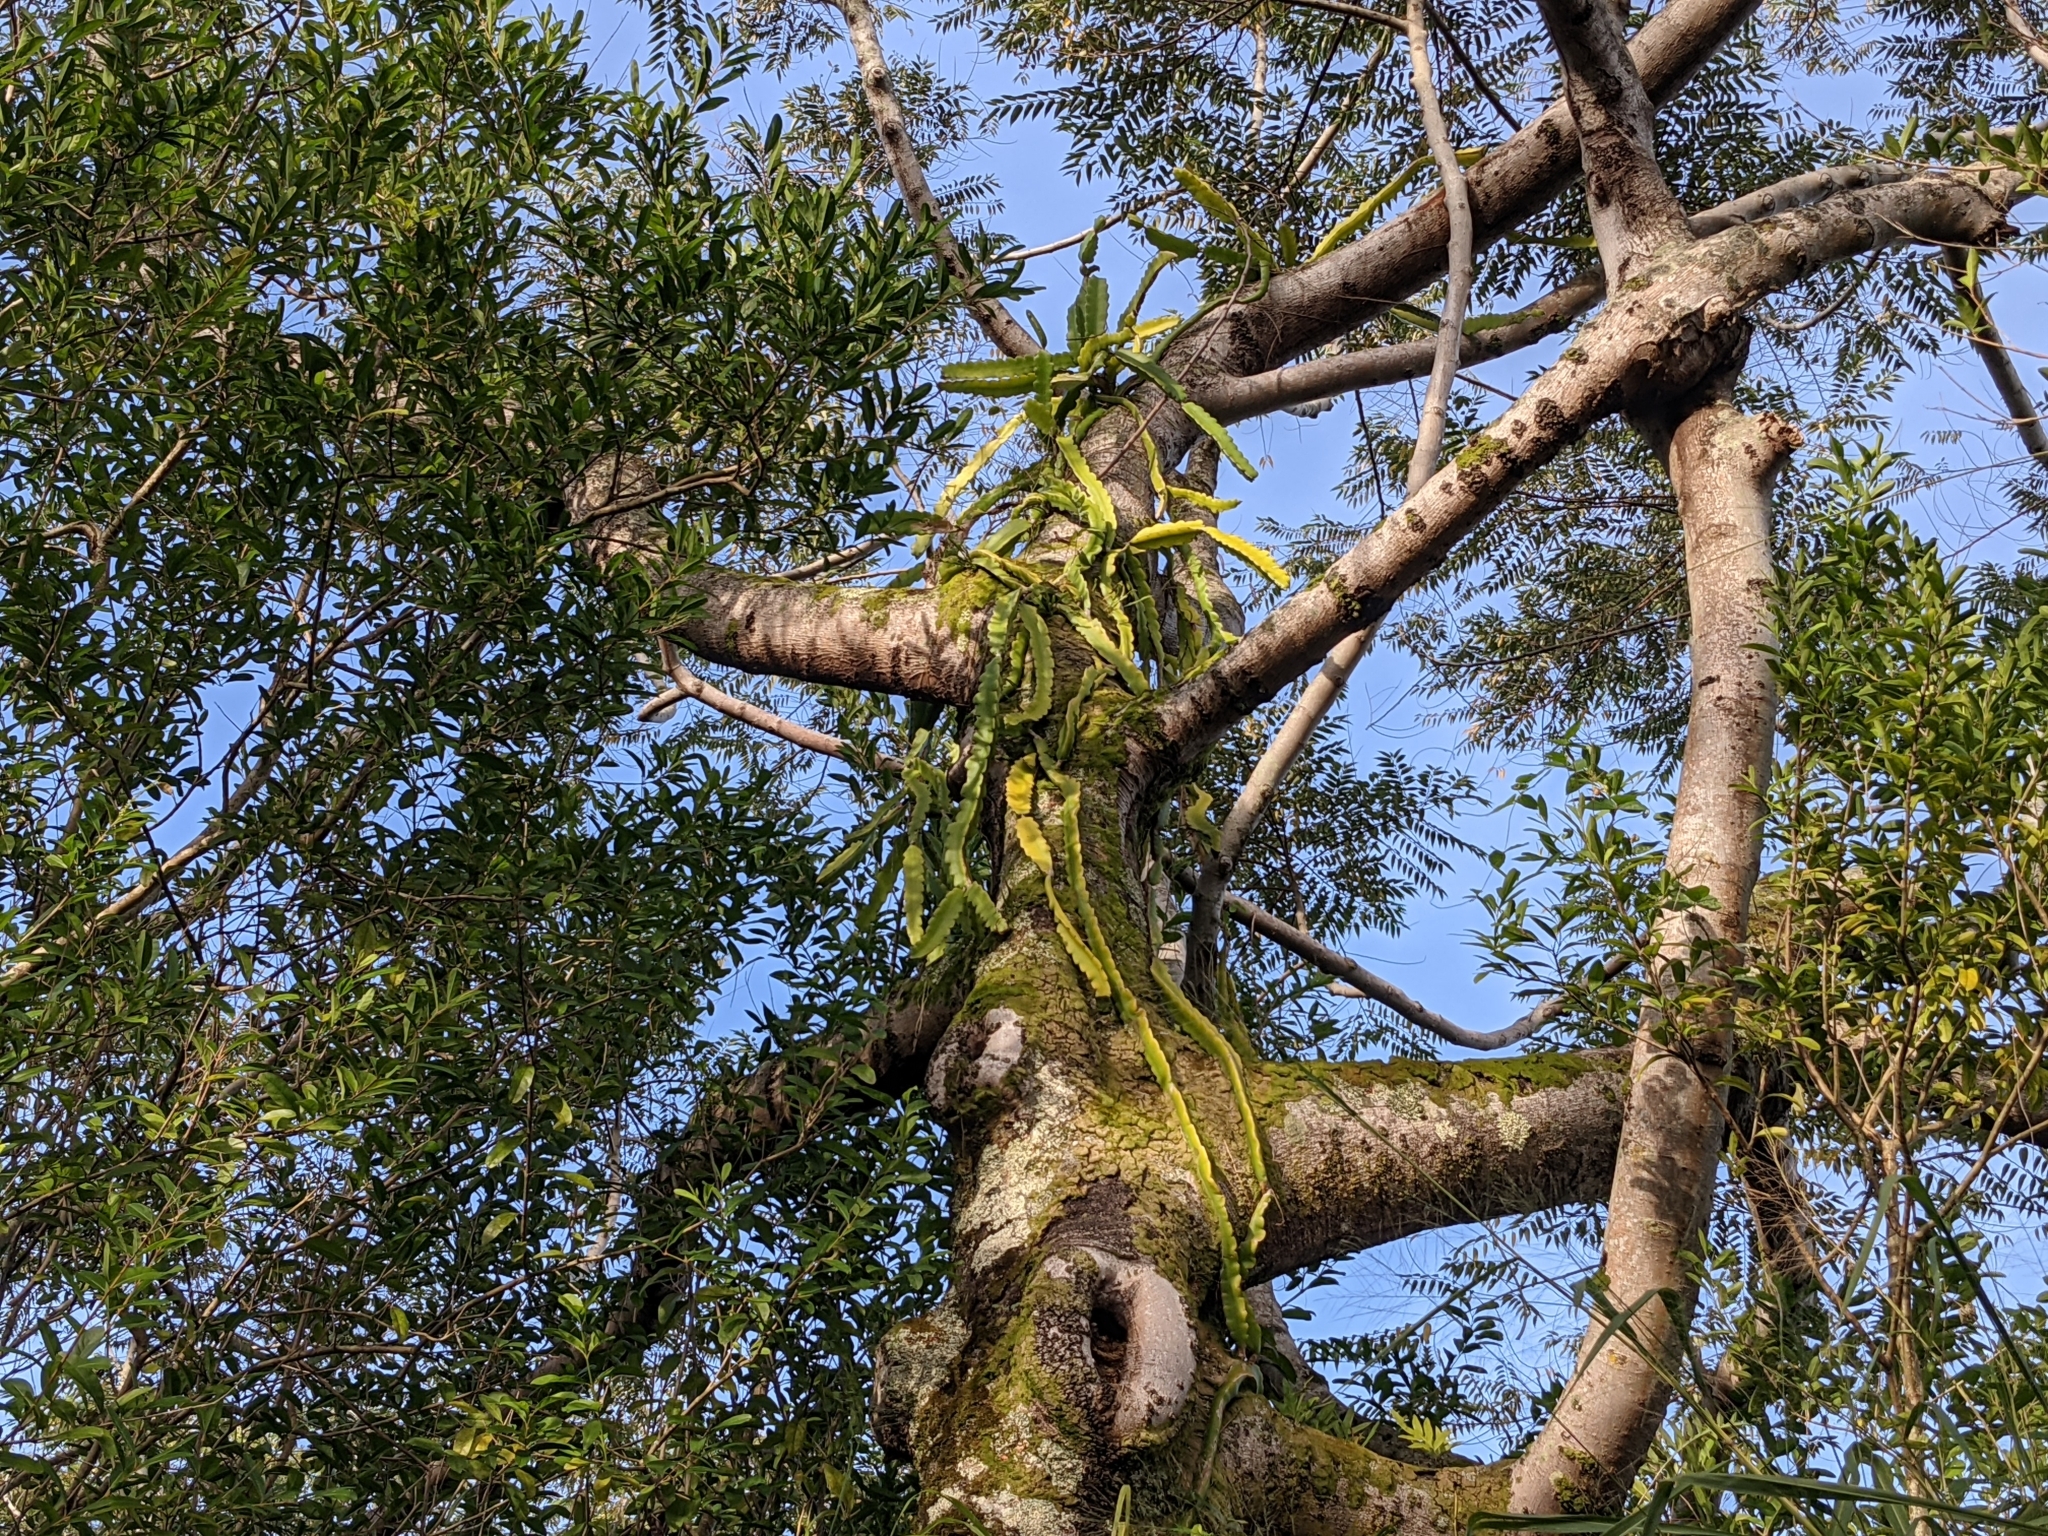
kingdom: Plantae
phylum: Tracheophyta
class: Magnoliopsida
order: Caryophyllales
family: Cactaceae
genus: Selenicereus
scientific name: Selenicereus undatus
